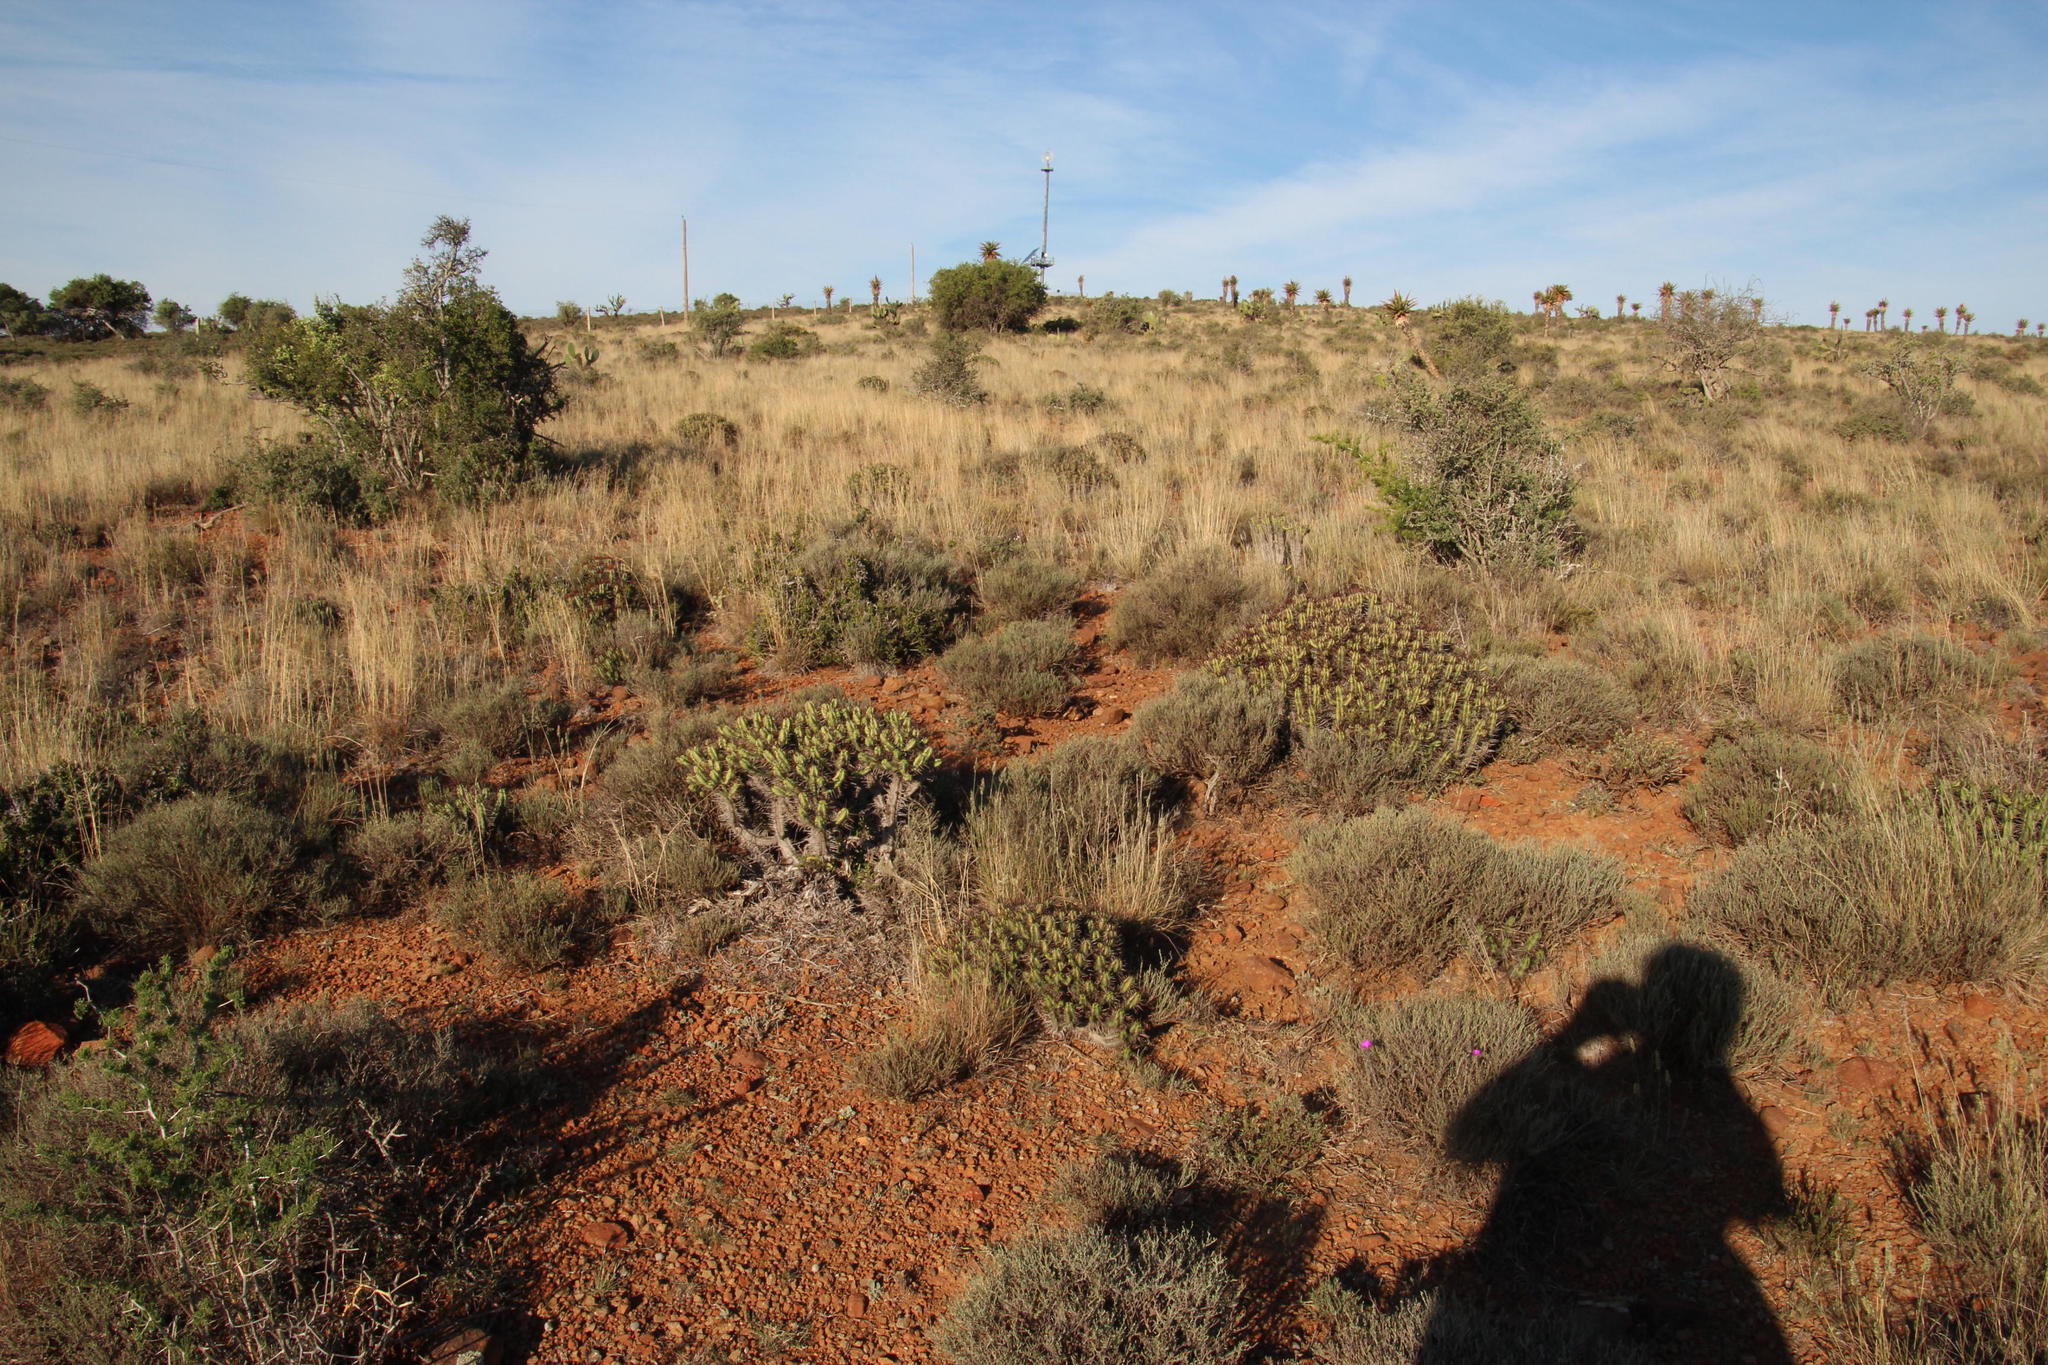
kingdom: Plantae
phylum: Tracheophyta
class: Magnoliopsida
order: Caryophyllales
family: Aizoaceae
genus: Aizoon
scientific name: Aizoon glinoides
